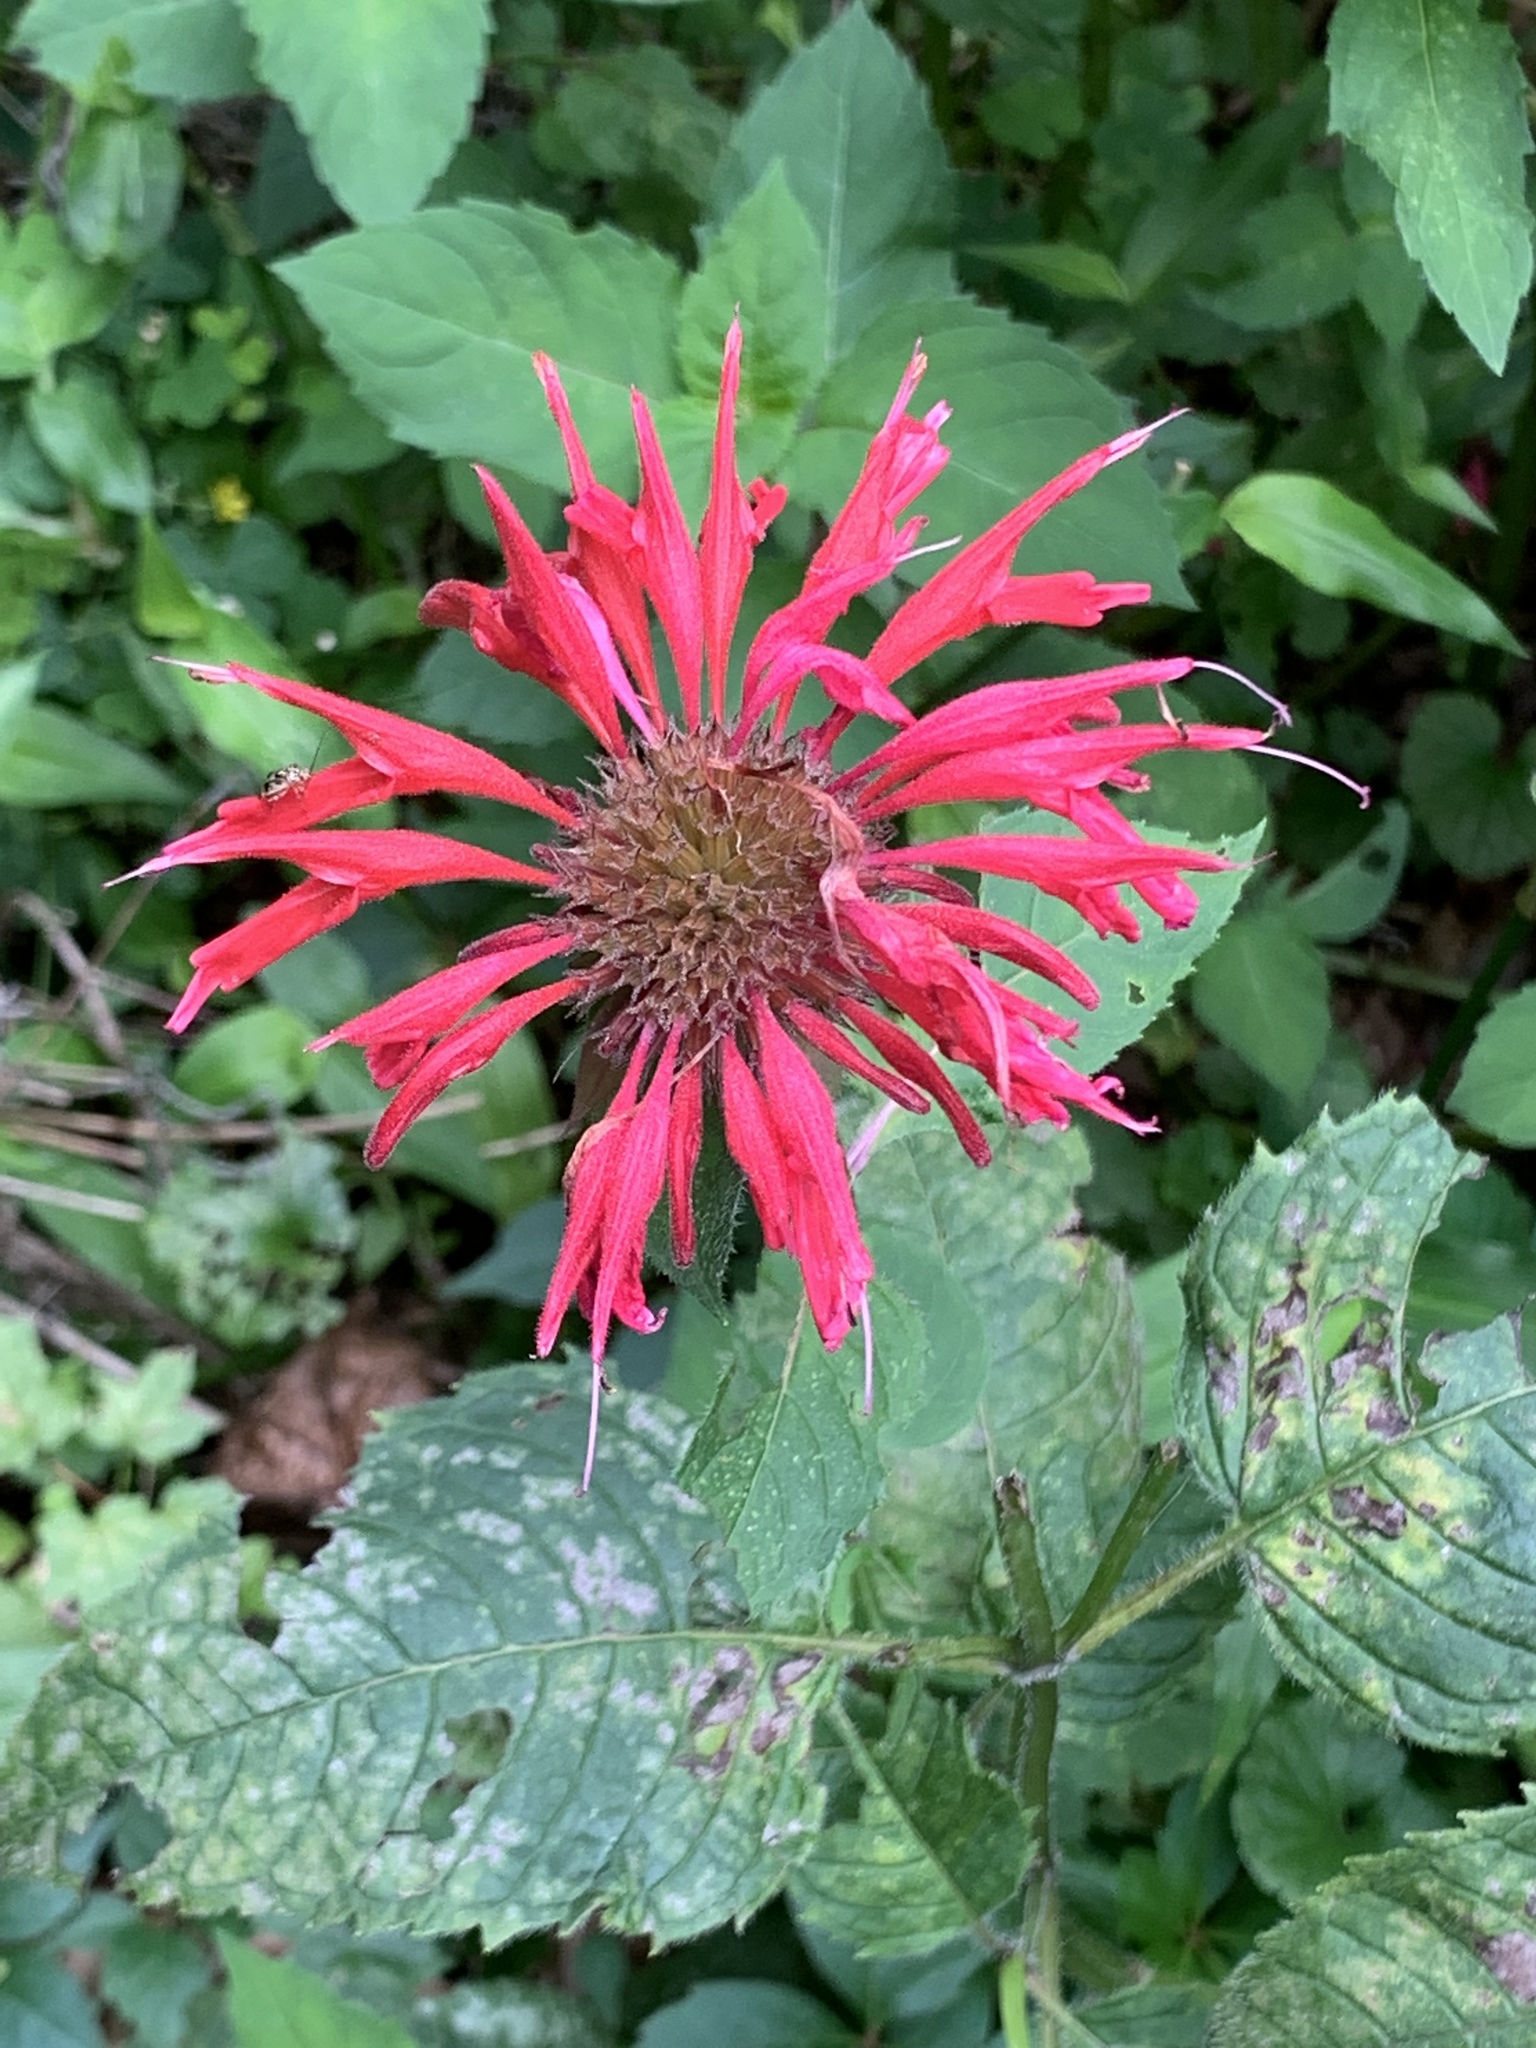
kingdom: Plantae
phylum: Tracheophyta
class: Magnoliopsida
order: Lamiales
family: Lamiaceae
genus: Monarda
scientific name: Monarda didyma
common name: Beebalm
